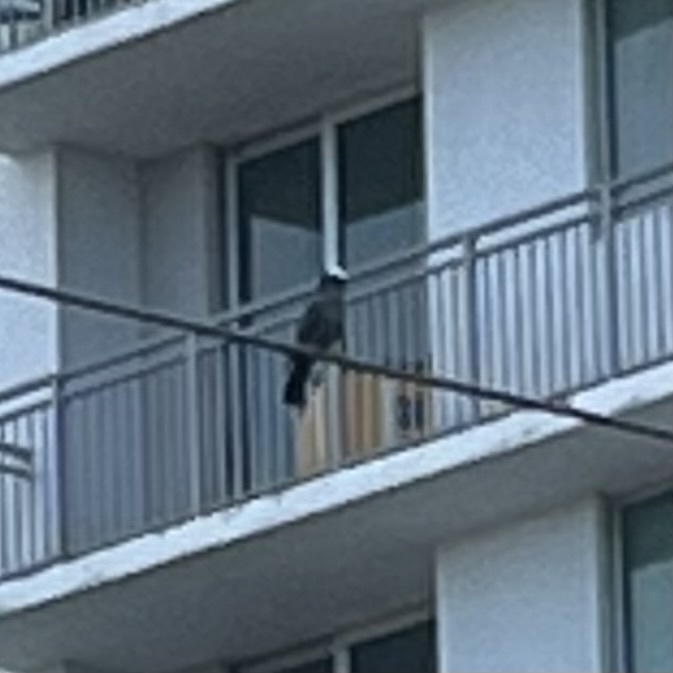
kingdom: Animalia
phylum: Chordata
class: Aves
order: Columbiformes
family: Columbidae
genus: Patagioenas
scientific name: Patagioenas leucocephala
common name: White-crowned pigeon
